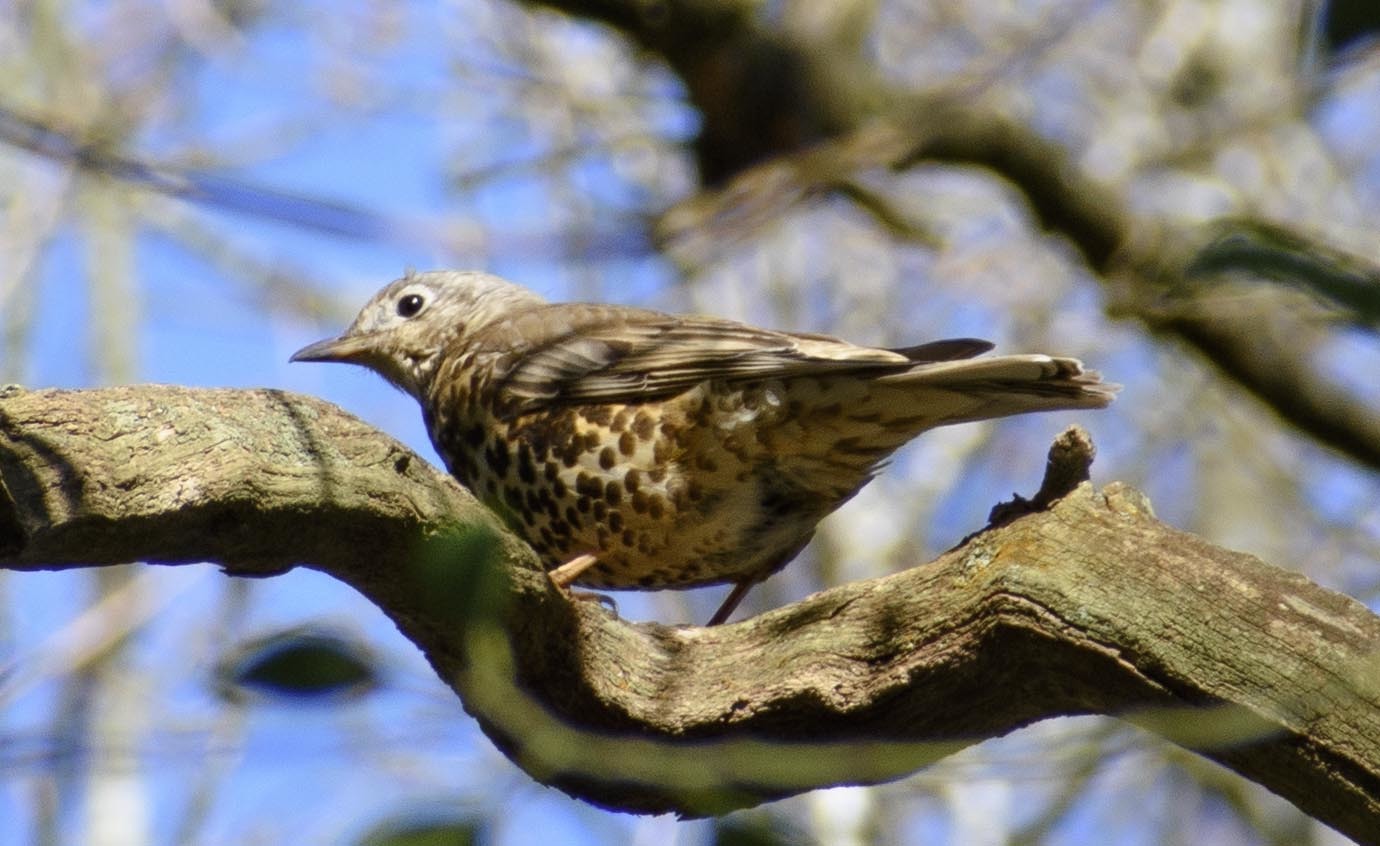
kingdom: Animalia
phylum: Chordata
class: Aves
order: Passeriformes
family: Turdidae
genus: Turdus
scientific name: Turdus viscivorus
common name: Mistle thrush
